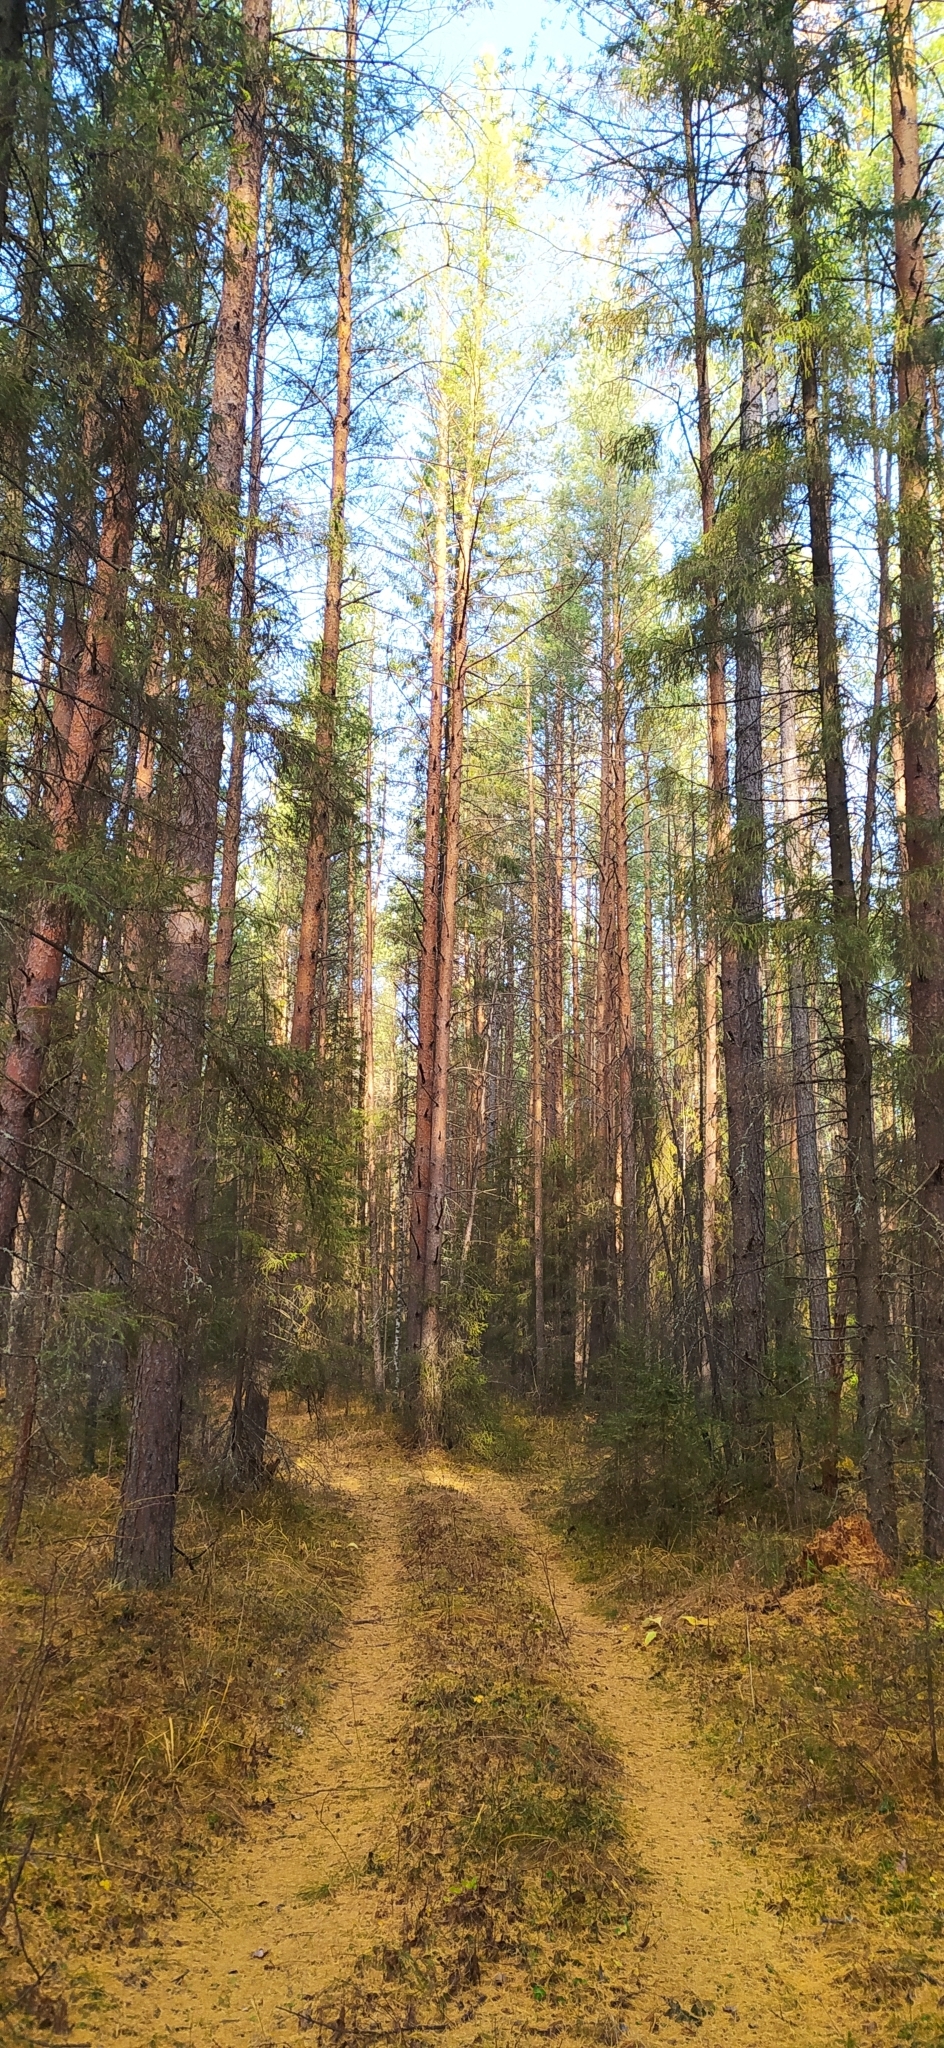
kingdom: Plantae
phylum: Tracheophyta
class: Pinopsida
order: Pinales
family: Pinaceae
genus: Pinus
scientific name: Pinus sylvestris
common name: Scots pine
